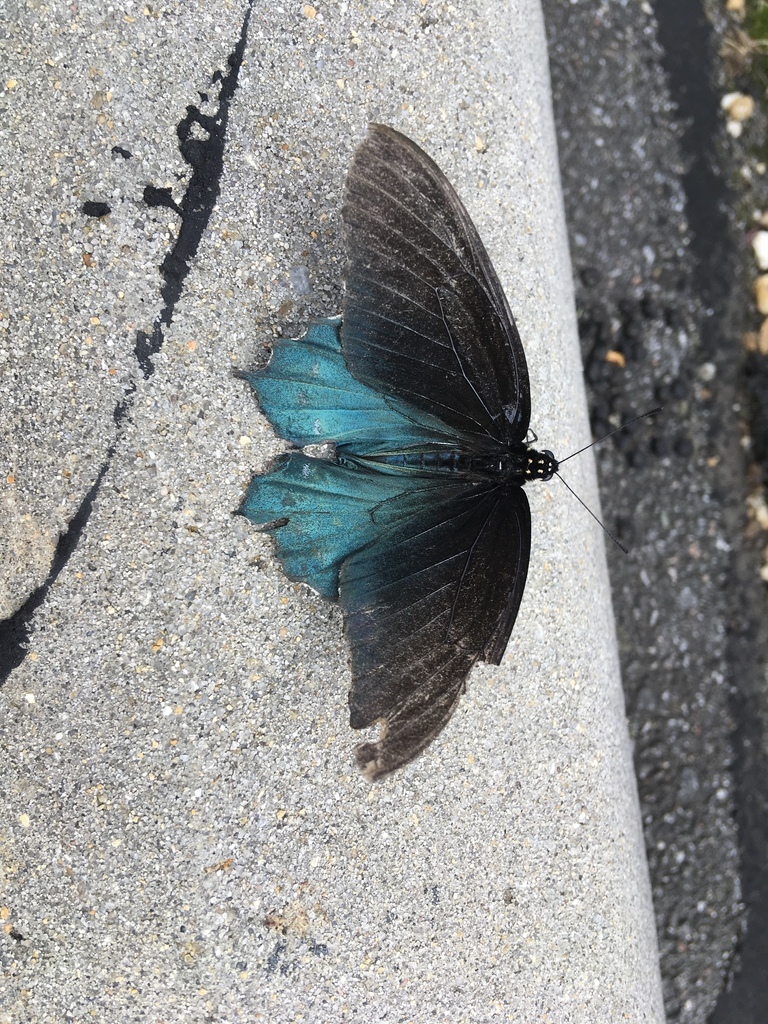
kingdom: Animalia
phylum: Arthropoda
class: Insecta
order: Lepidoptera
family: Papilionidae
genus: Battus
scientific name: Battus philenor
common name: Pipevine swallowtail
